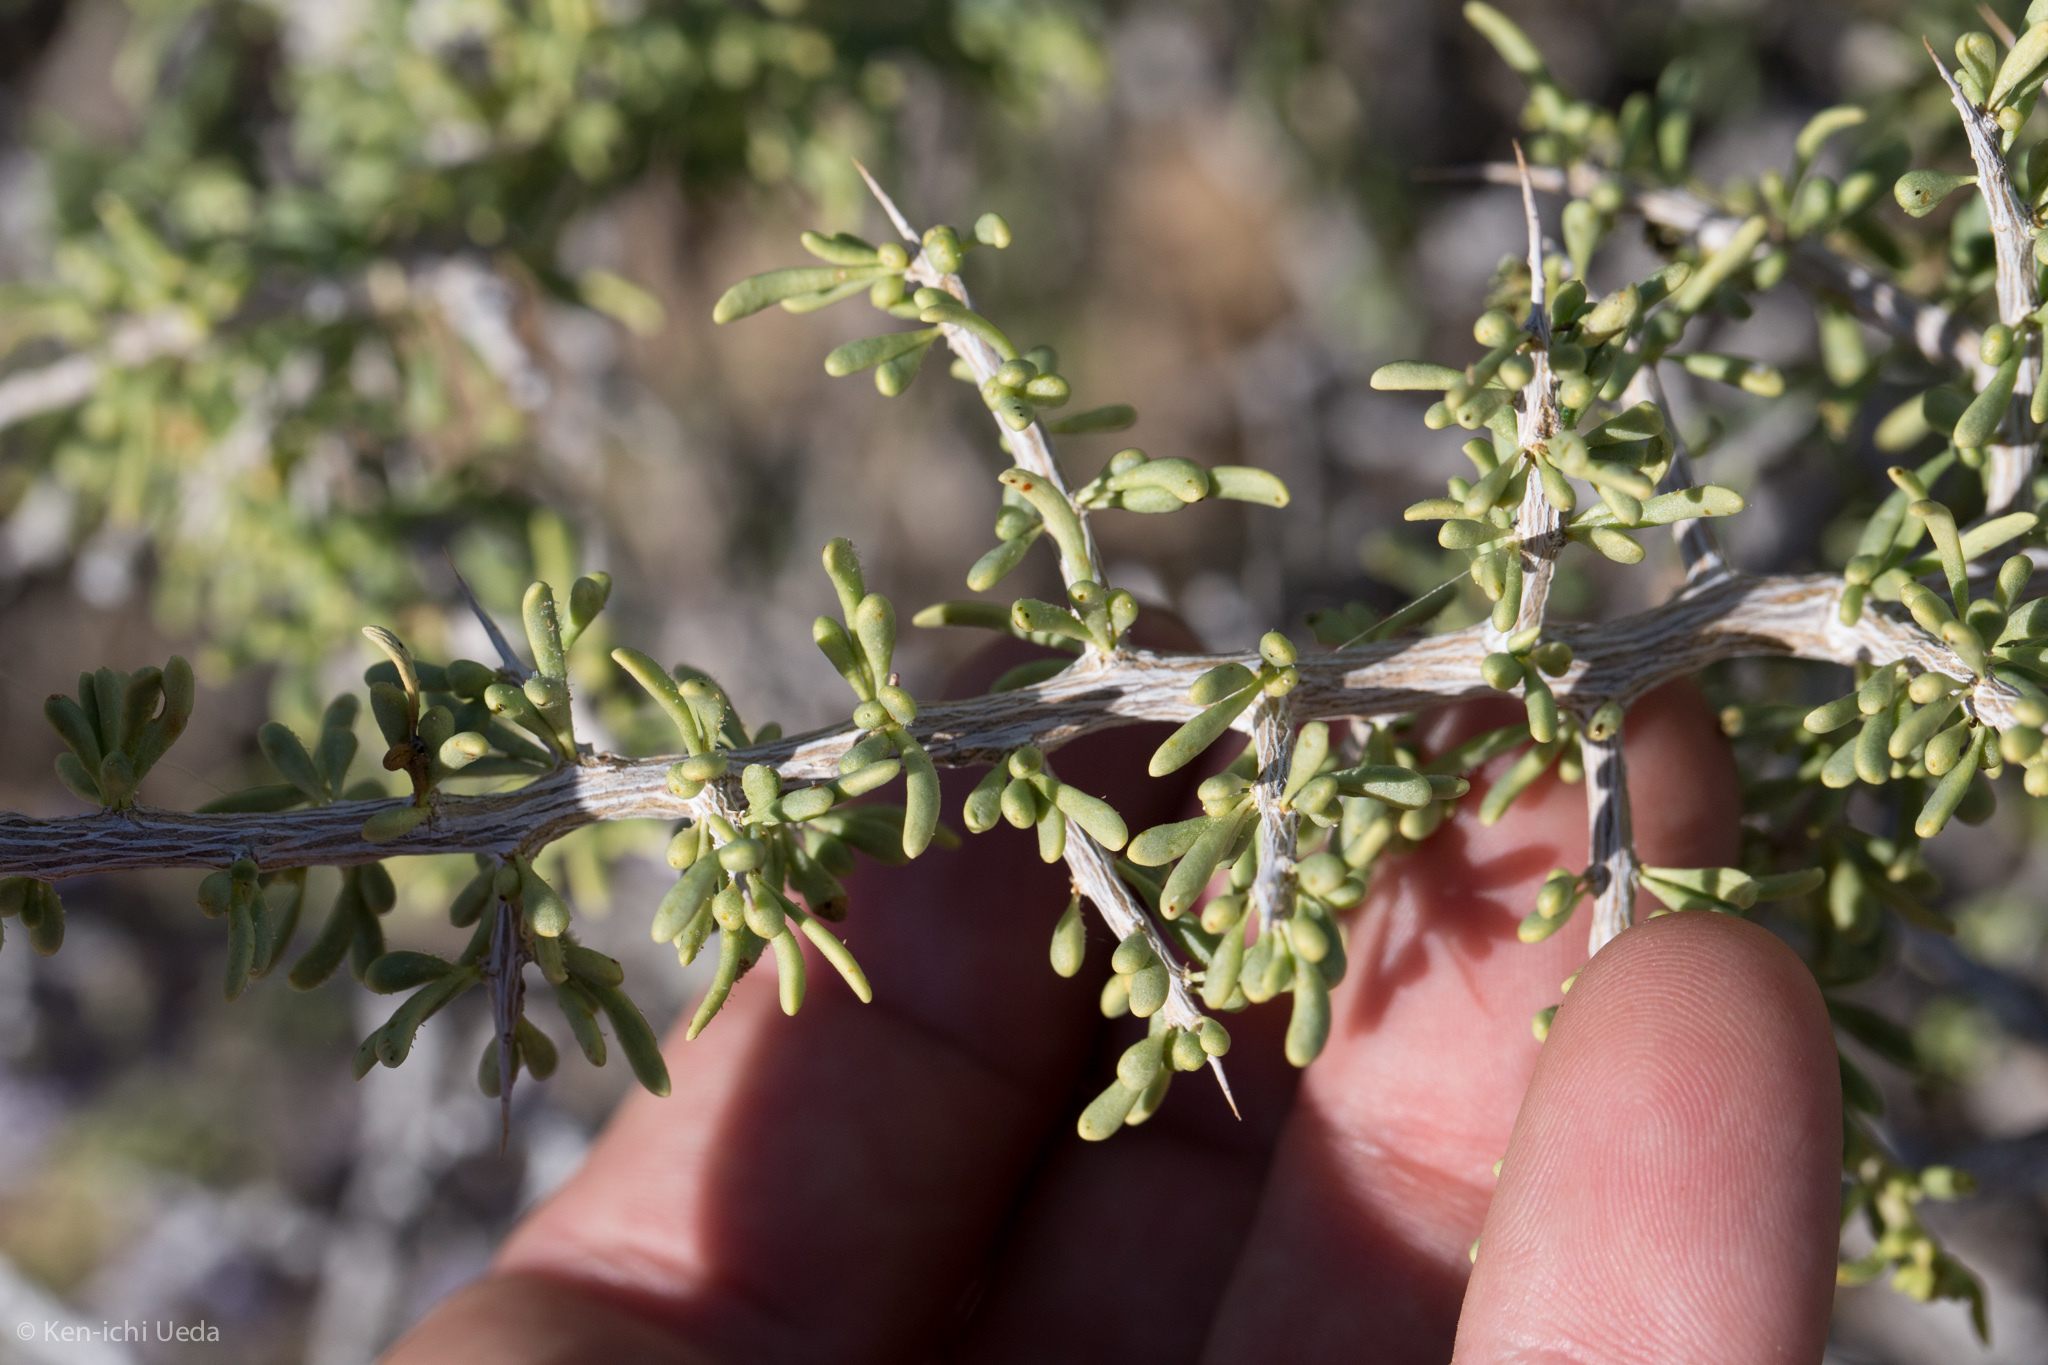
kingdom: Plantae
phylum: Tracheophyta
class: Magnoliopsida
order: Solanales
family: Solanaceae
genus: Lycium
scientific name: Lycium andersonii
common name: Water-jacket
